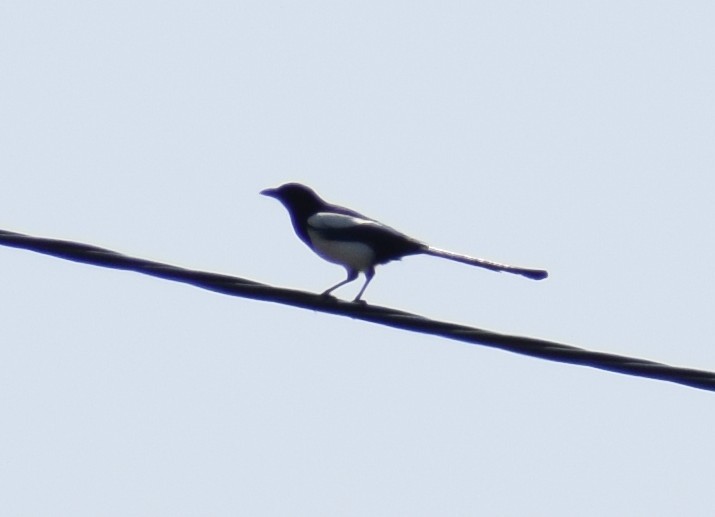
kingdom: Animalia
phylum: Chordata
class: Aves
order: Passeriformes
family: Corvidae
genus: Pica
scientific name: Pica pica
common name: Eurasian magpie
